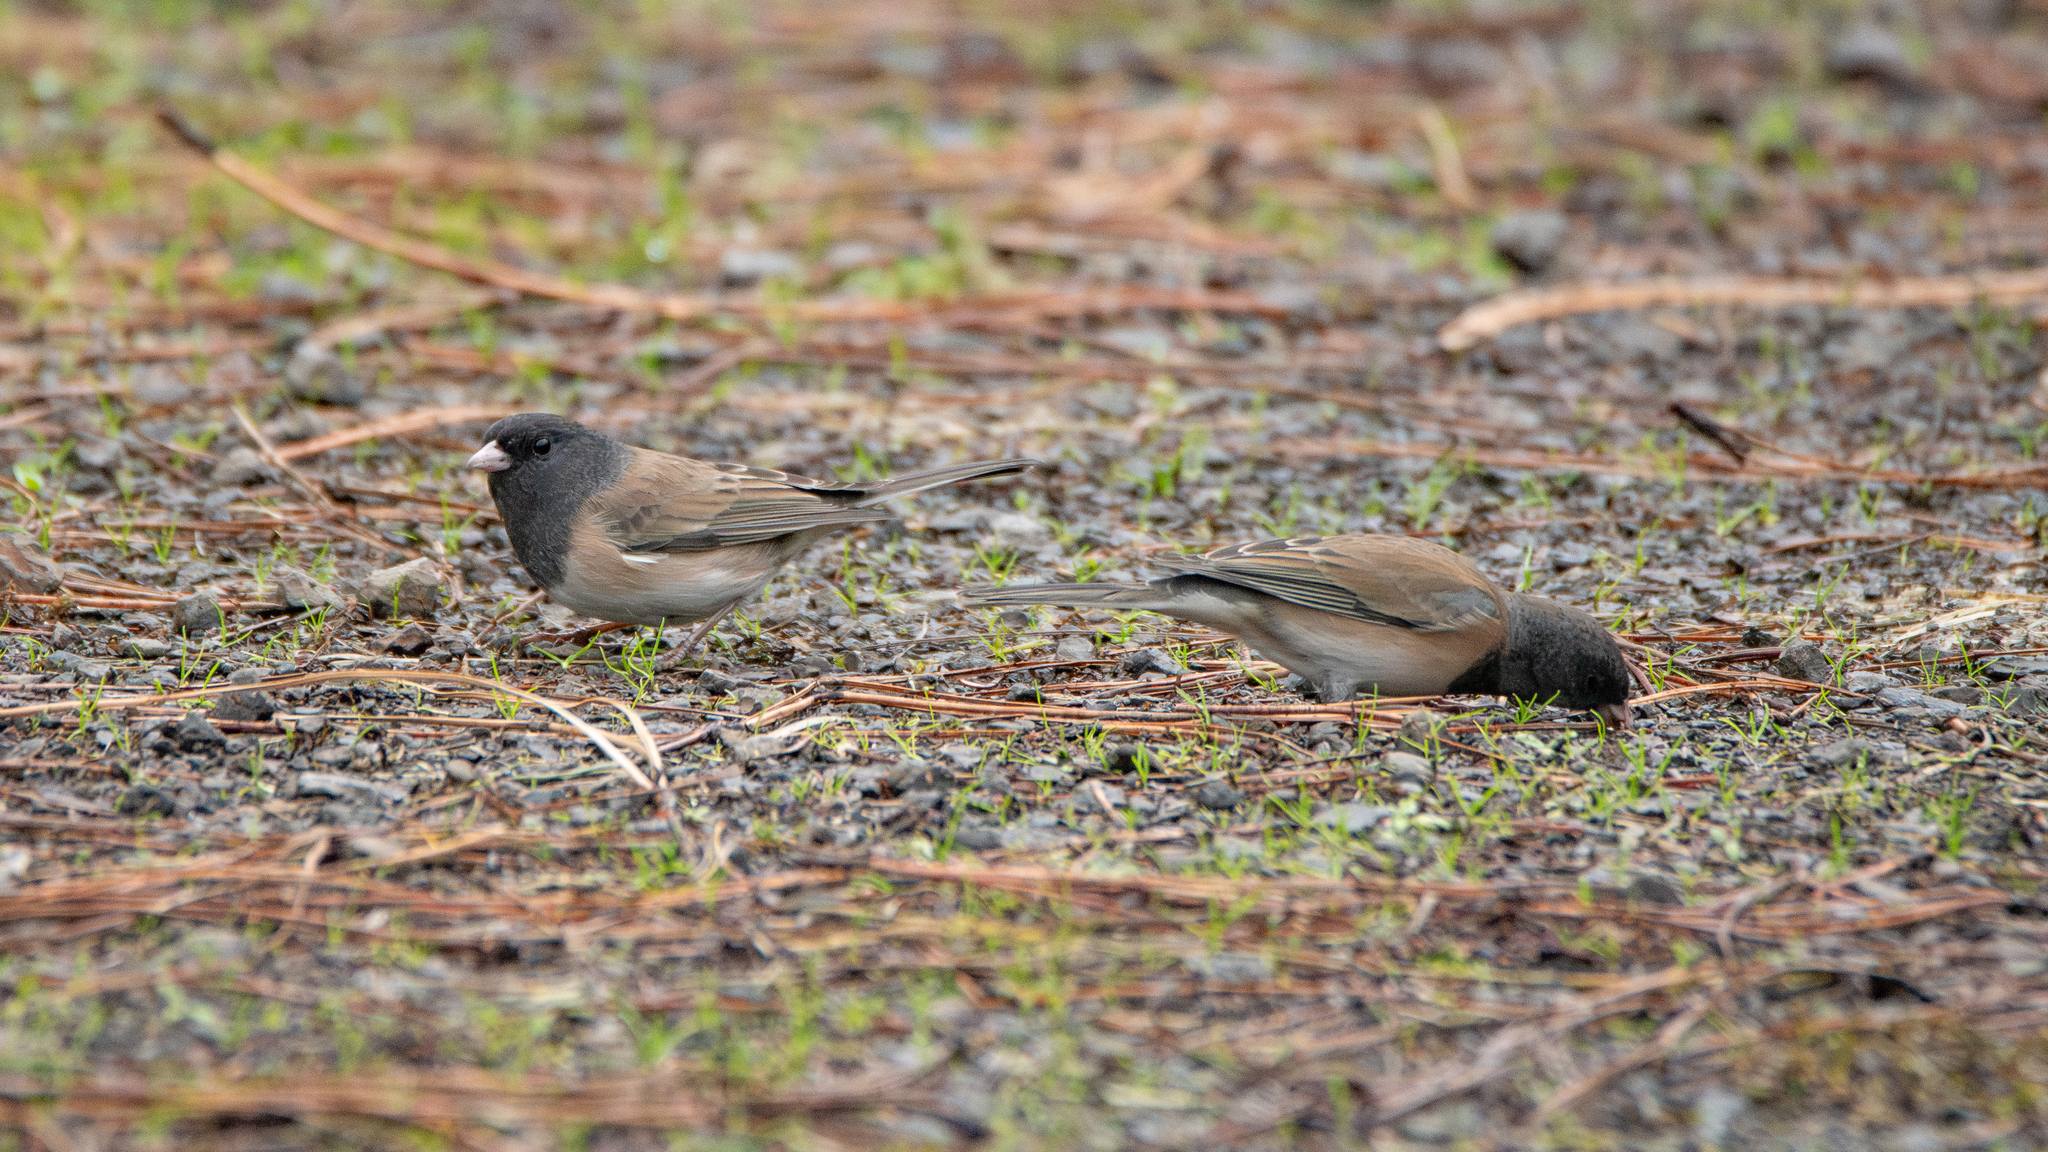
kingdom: Animalia
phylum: Chordata
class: Aves
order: Passeriformes
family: Passerellidae
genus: Junco
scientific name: Junco hyemalis
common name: Dark-eyed junco
